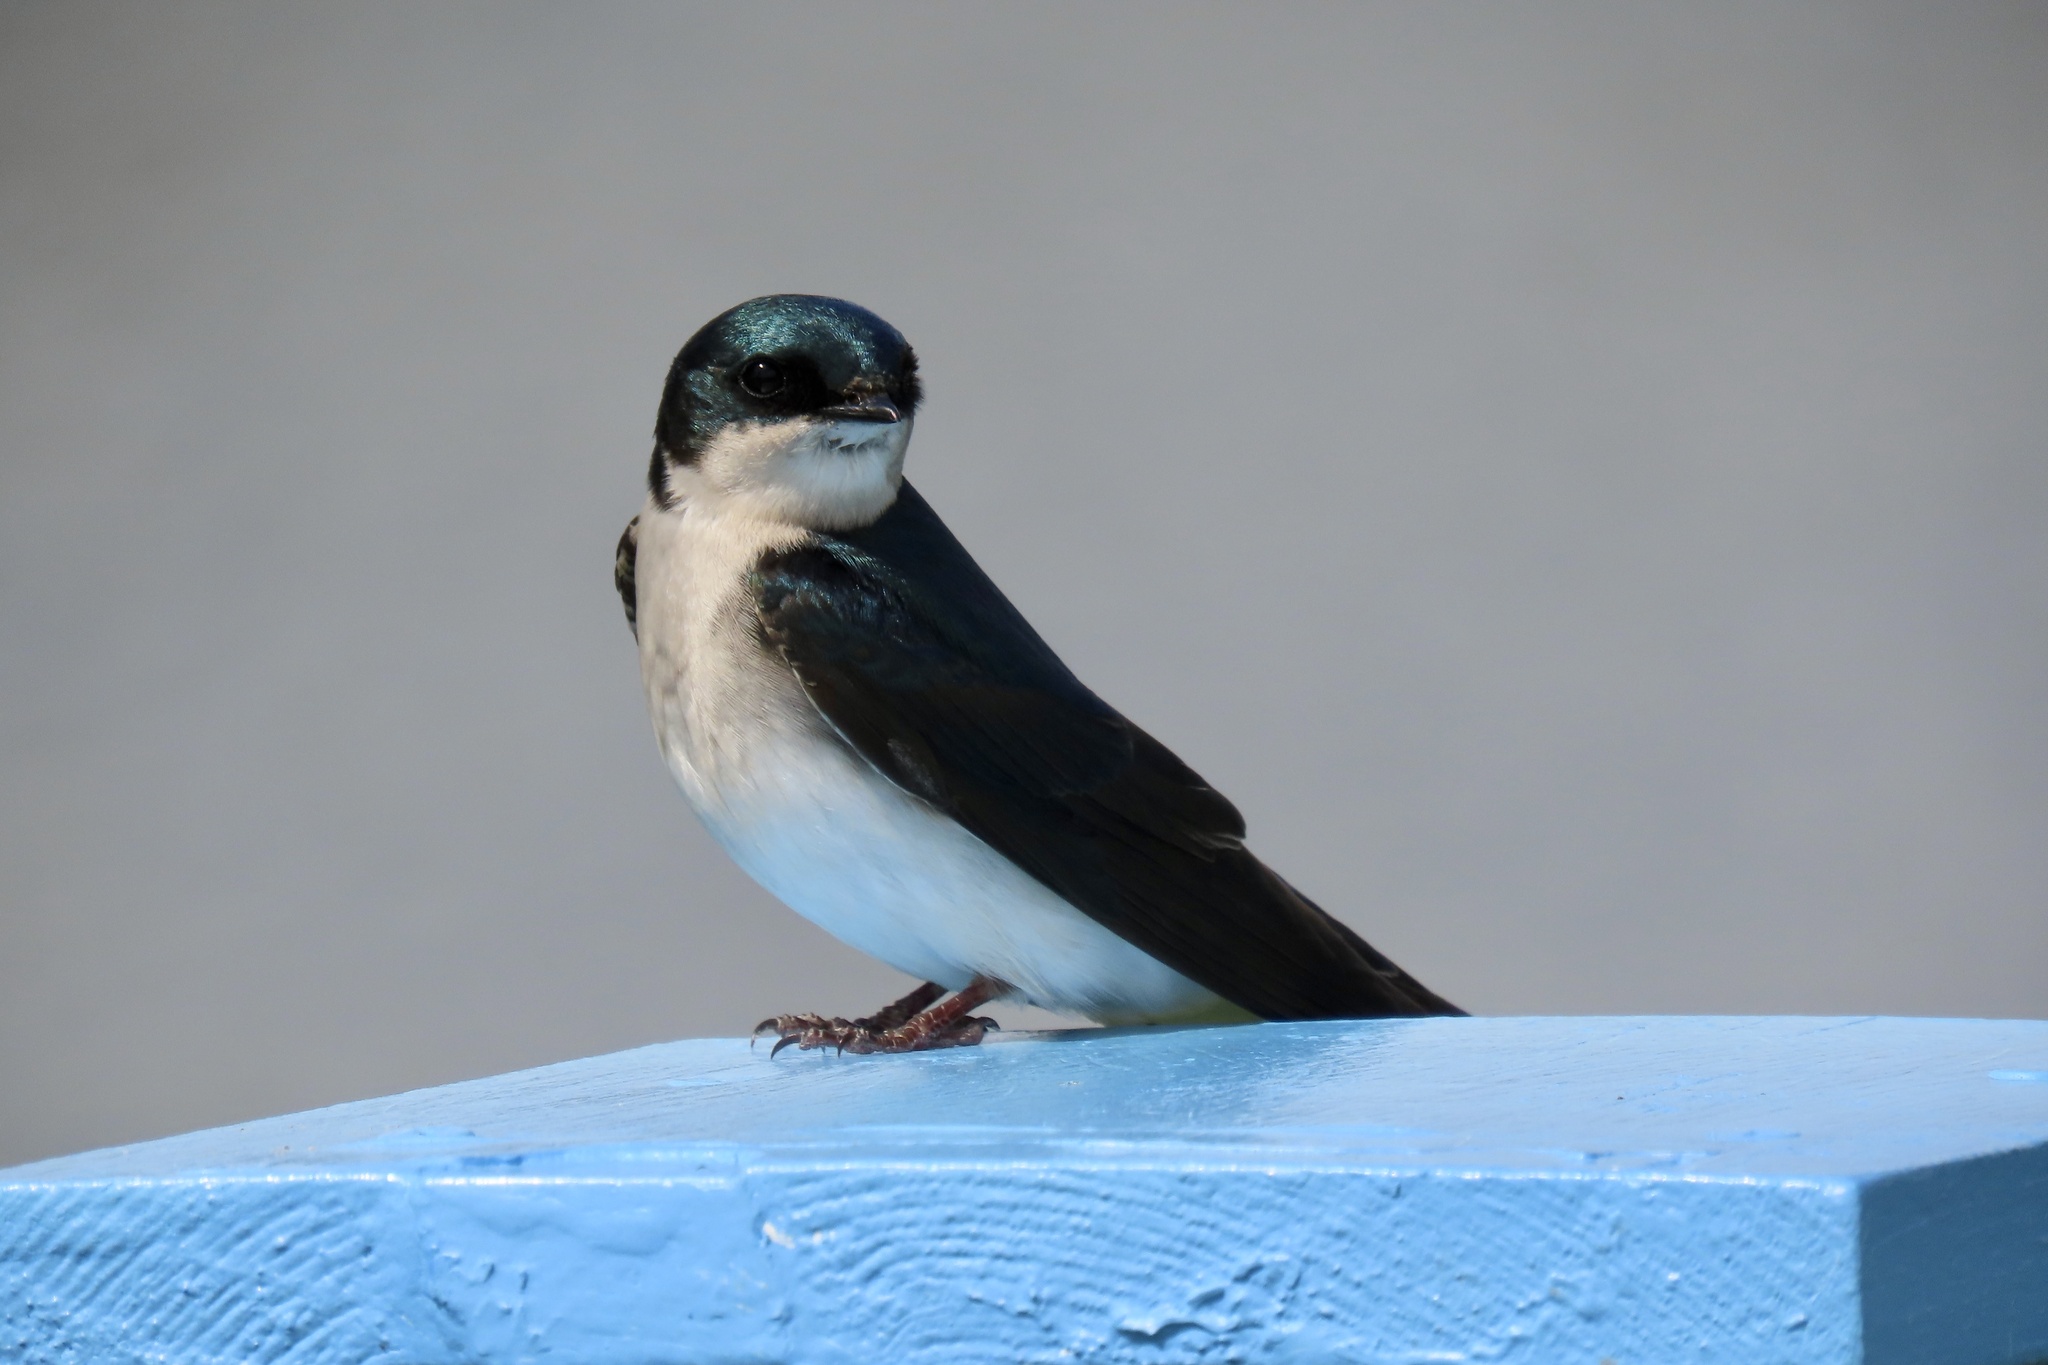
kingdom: Animalia
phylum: Chordata
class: Aves
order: Passeriformes
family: Hirundinidae
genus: Tachycineta
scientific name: Tachycineta bicolor
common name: Tree swallow
